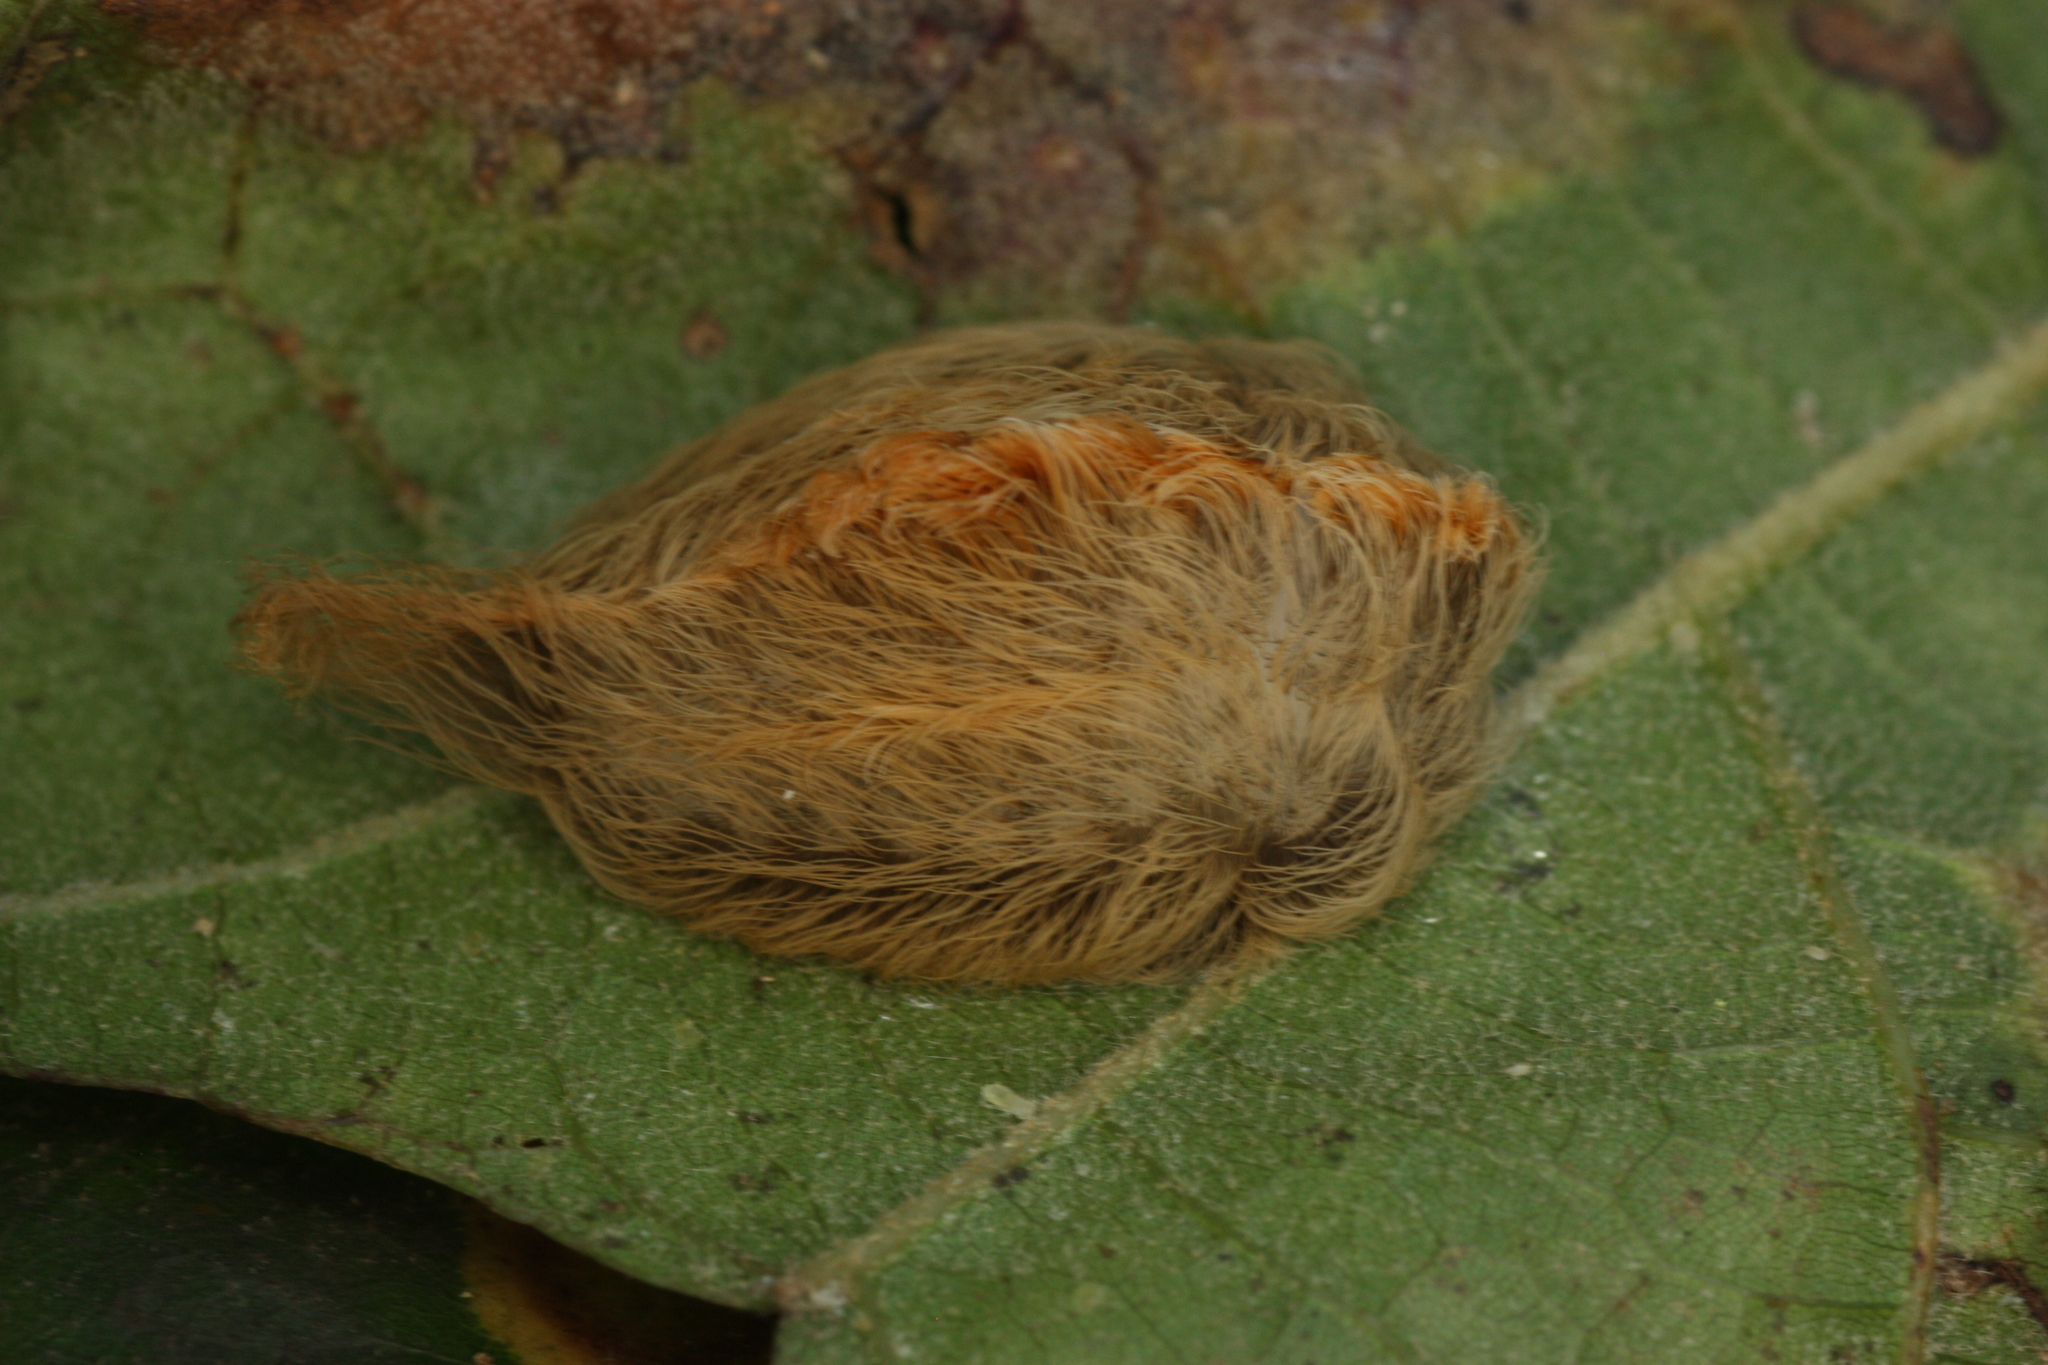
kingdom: Animalia
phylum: Arthropoda
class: Insecta
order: Lepidoptera
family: Megalopygidae
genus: Megalopyge
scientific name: Megalopyge opercularis
